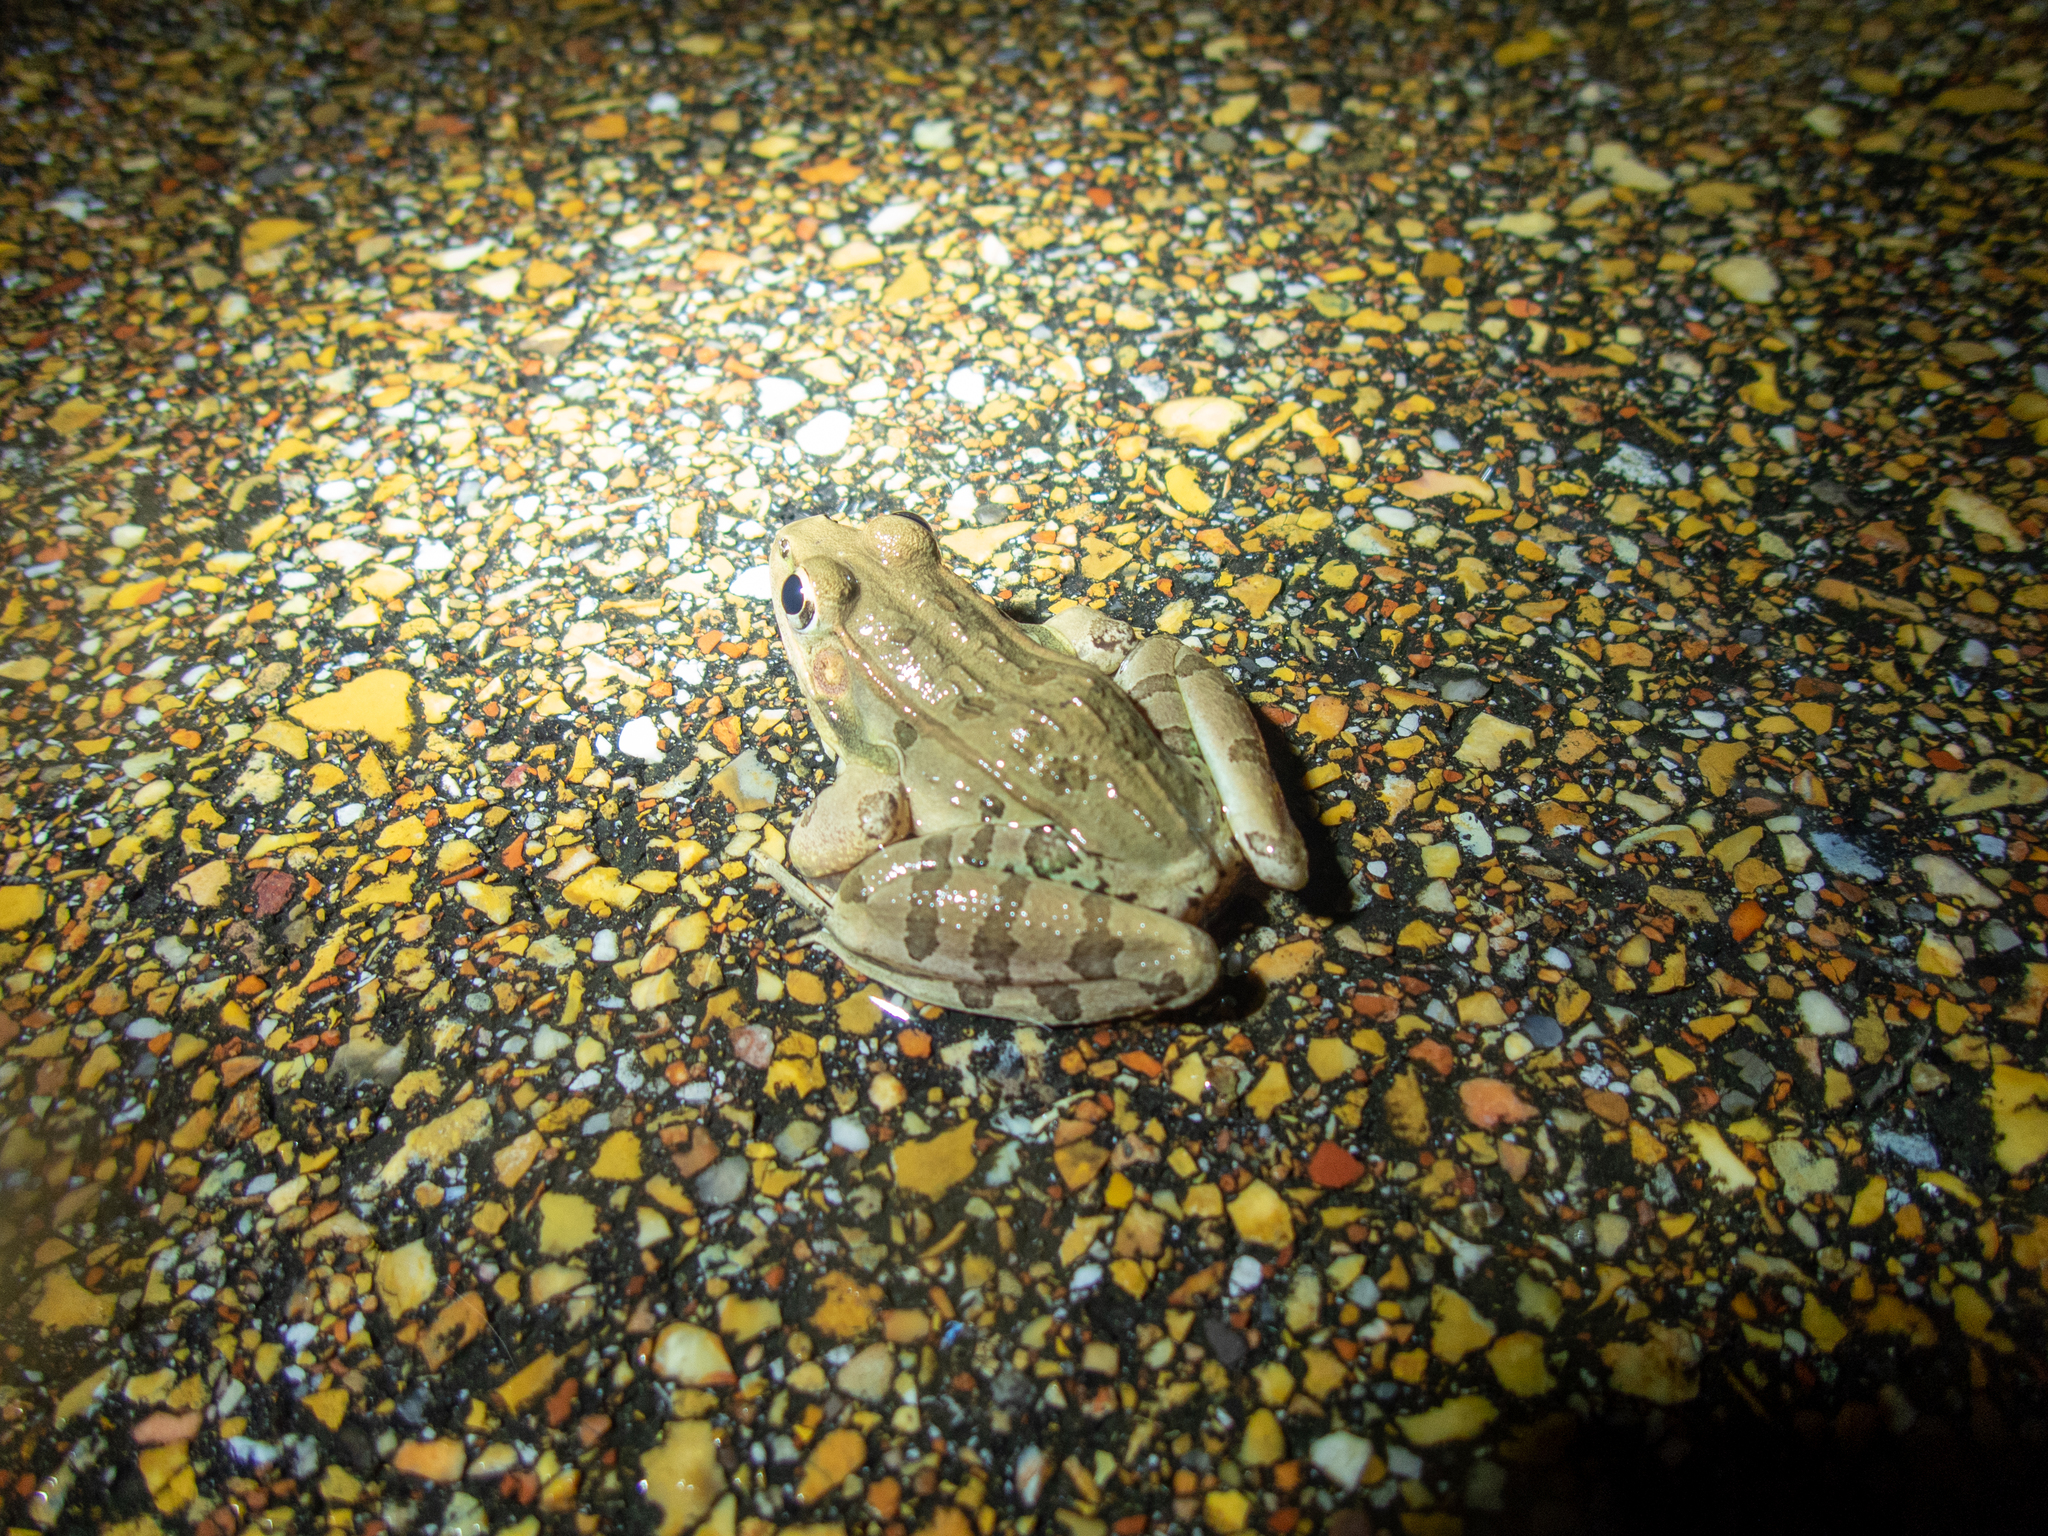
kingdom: Animalia
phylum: Chordata
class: Amphibia
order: Anura
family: Ranidae
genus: Lithobates
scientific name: Lithobates sphenocephalus
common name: Southern leopard frog
